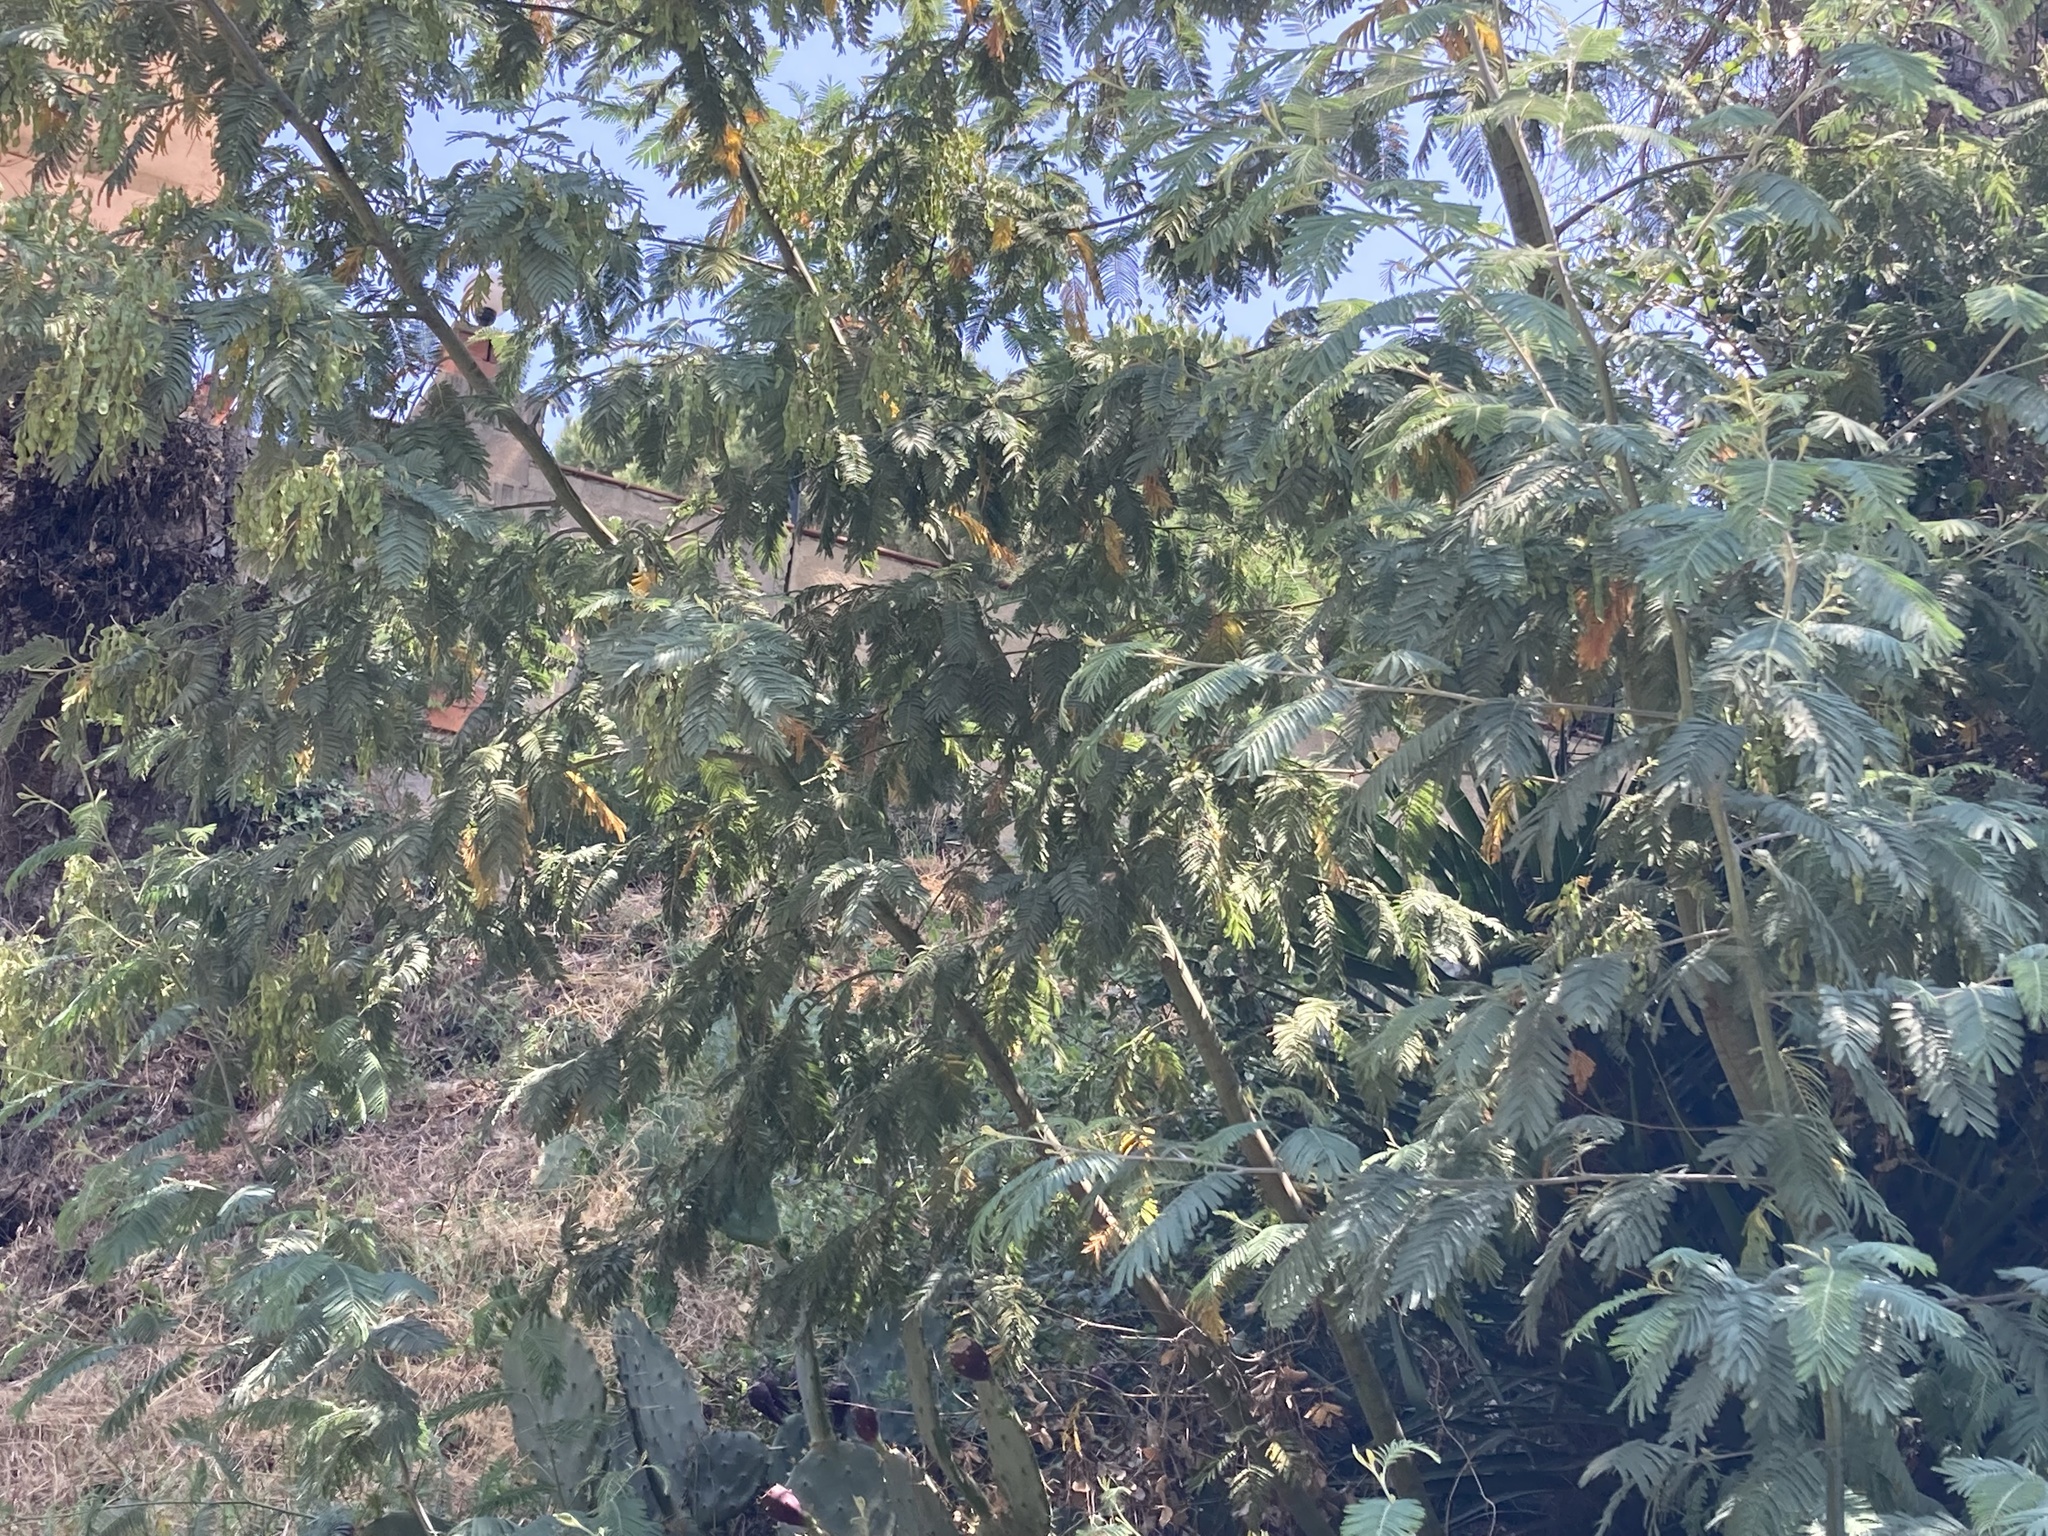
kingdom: Plantae
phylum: Tracheophyta
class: Magnoliopsida
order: Fabales
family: Fabaceae
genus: Acacia
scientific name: Acacia dealbata
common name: Silver wattle
